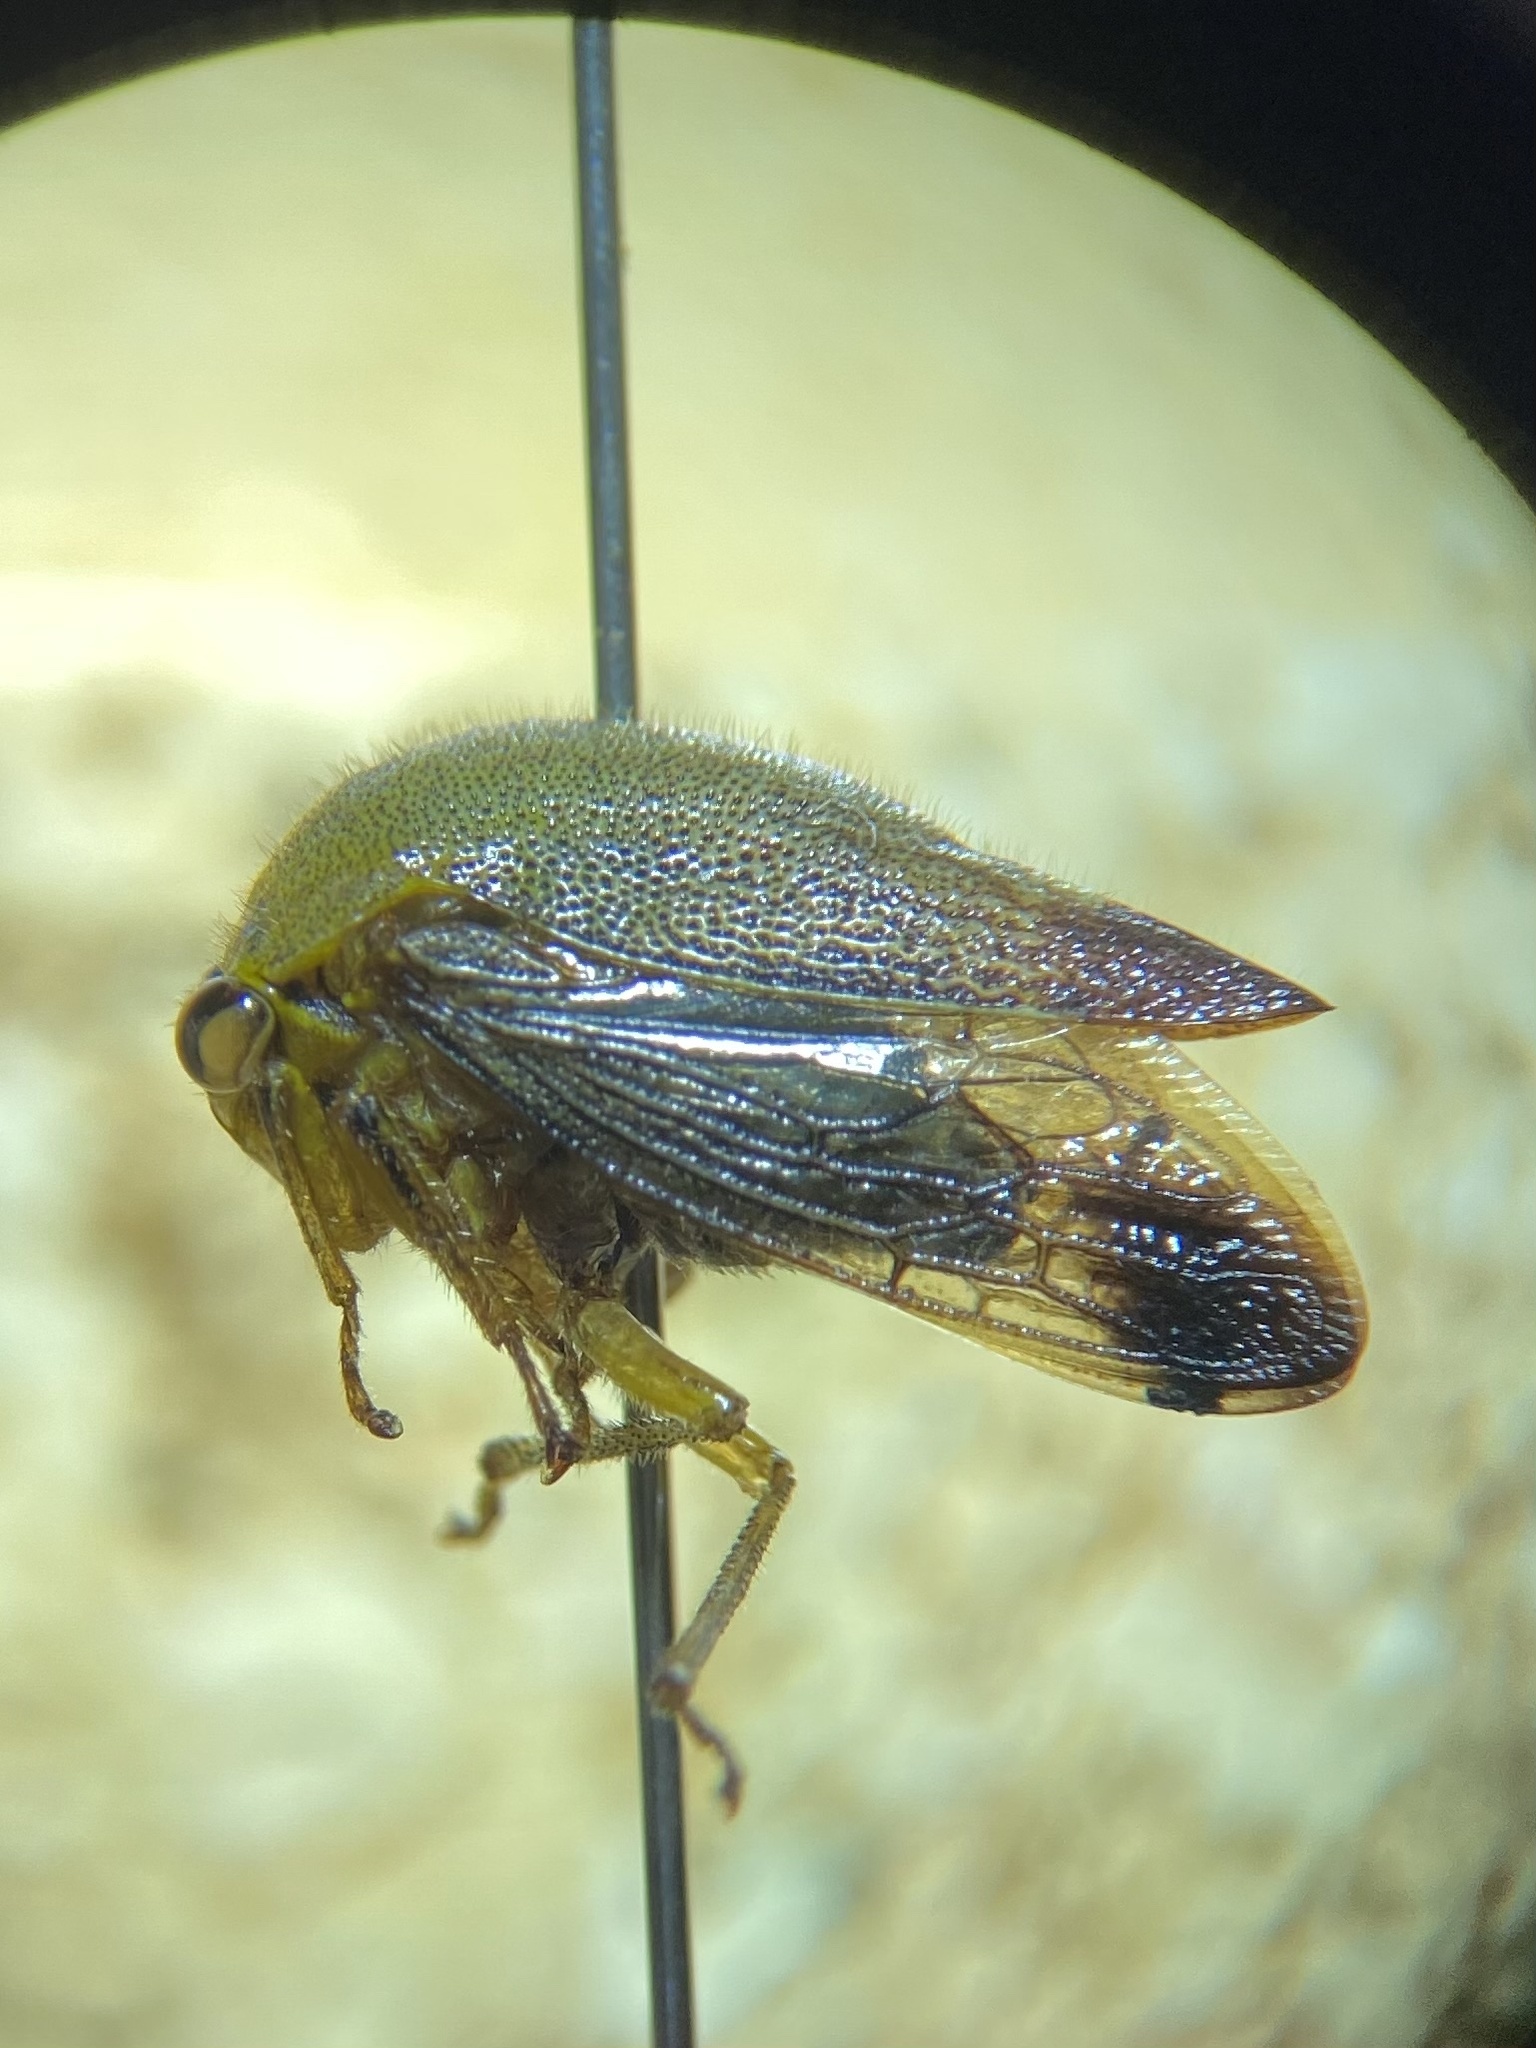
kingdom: Animalia
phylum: Arthropoda
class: Insecta
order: Hemiptera
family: Membracidae
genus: Carynota
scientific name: Carynota mera
